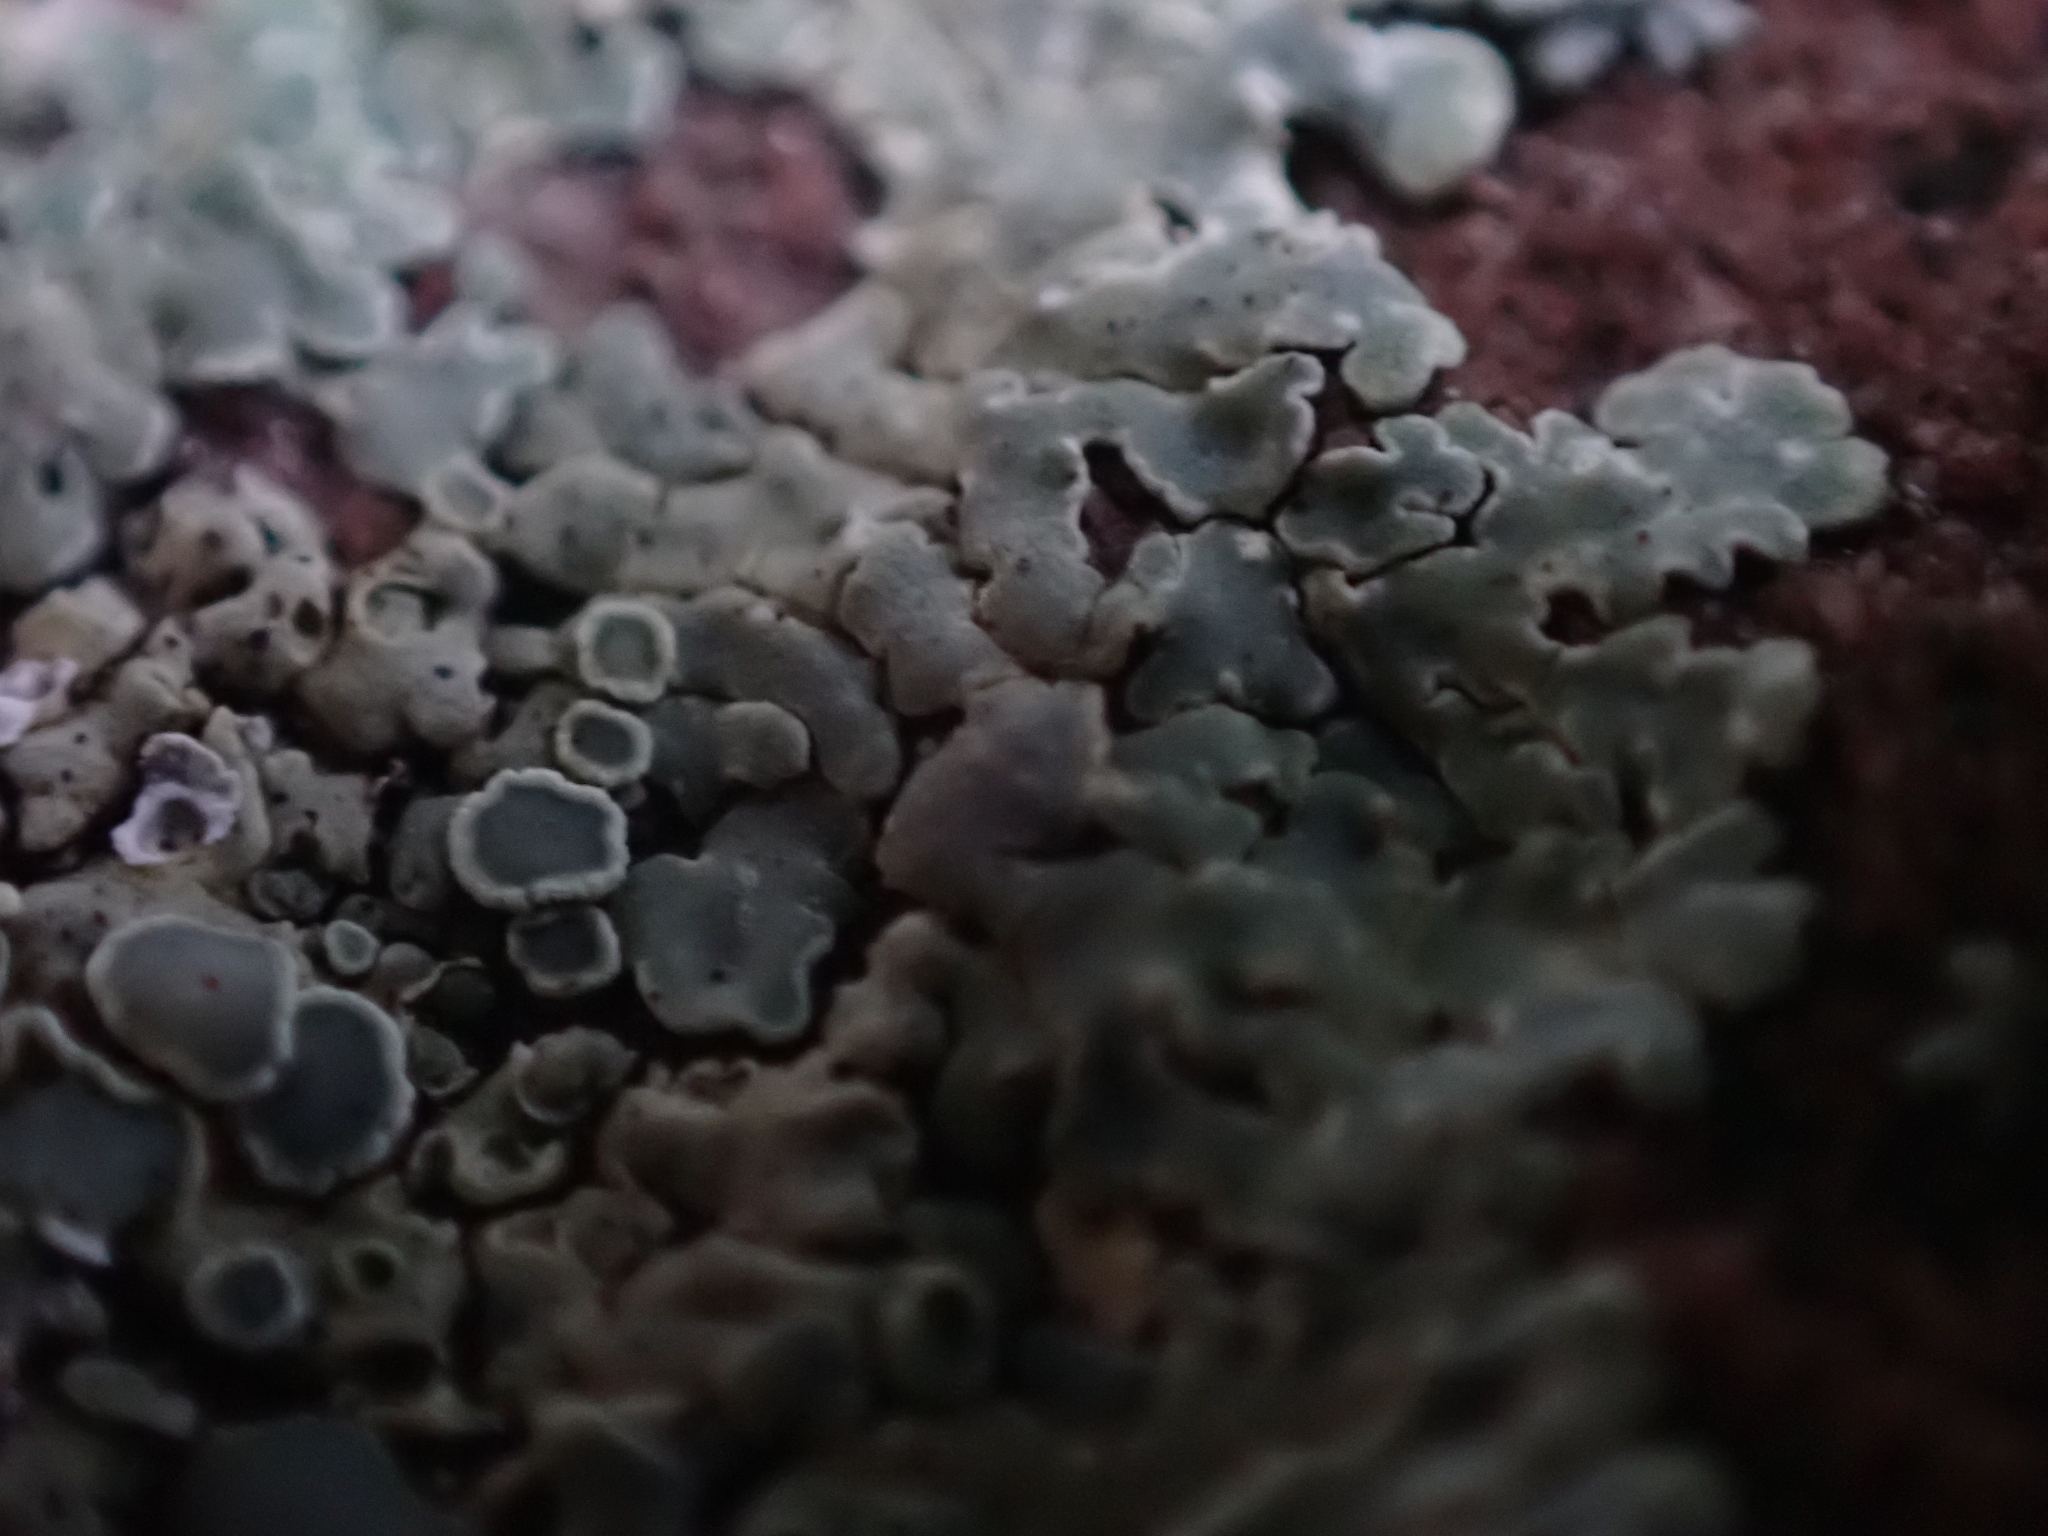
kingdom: Fungi
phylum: Ascomycota
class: Lecanoromycetes
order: Lecanorales
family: Lecanoraceae
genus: Protoparmeliopsis
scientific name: Protoparmeliopsis muralis
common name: Stonewall rim lichen
